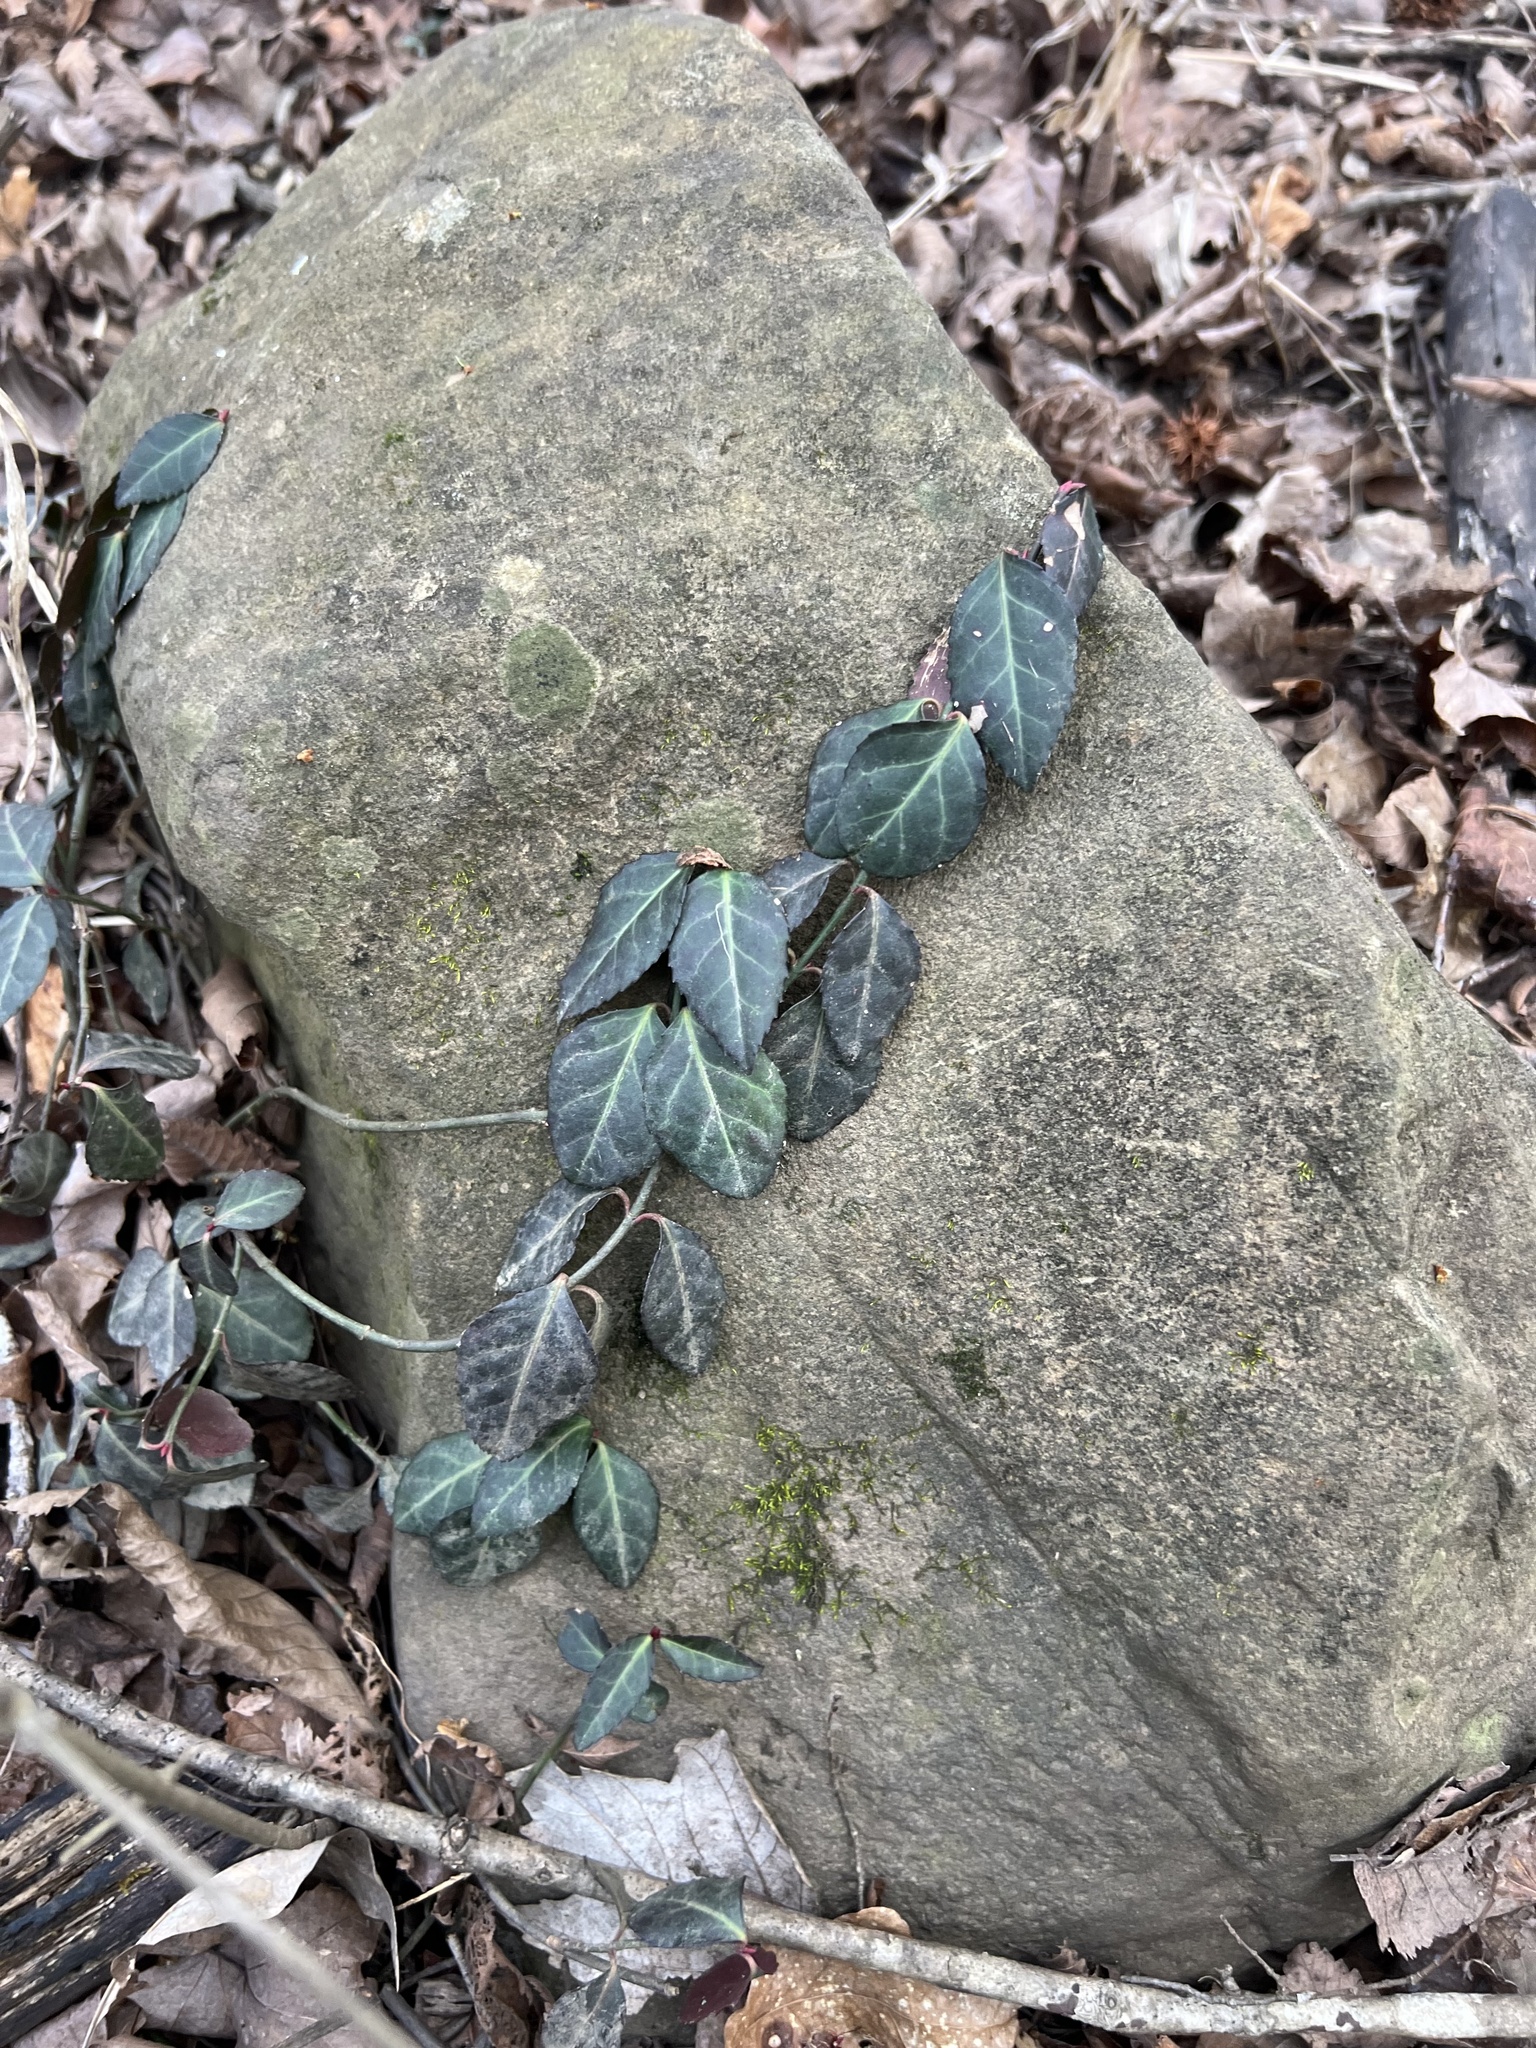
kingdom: Plantae
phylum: Tracheophyta
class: Magnoliopsida
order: Celastrales
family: Celastraceae
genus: Euonymus
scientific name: Euonymus fortunei
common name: Climbing euonymus
